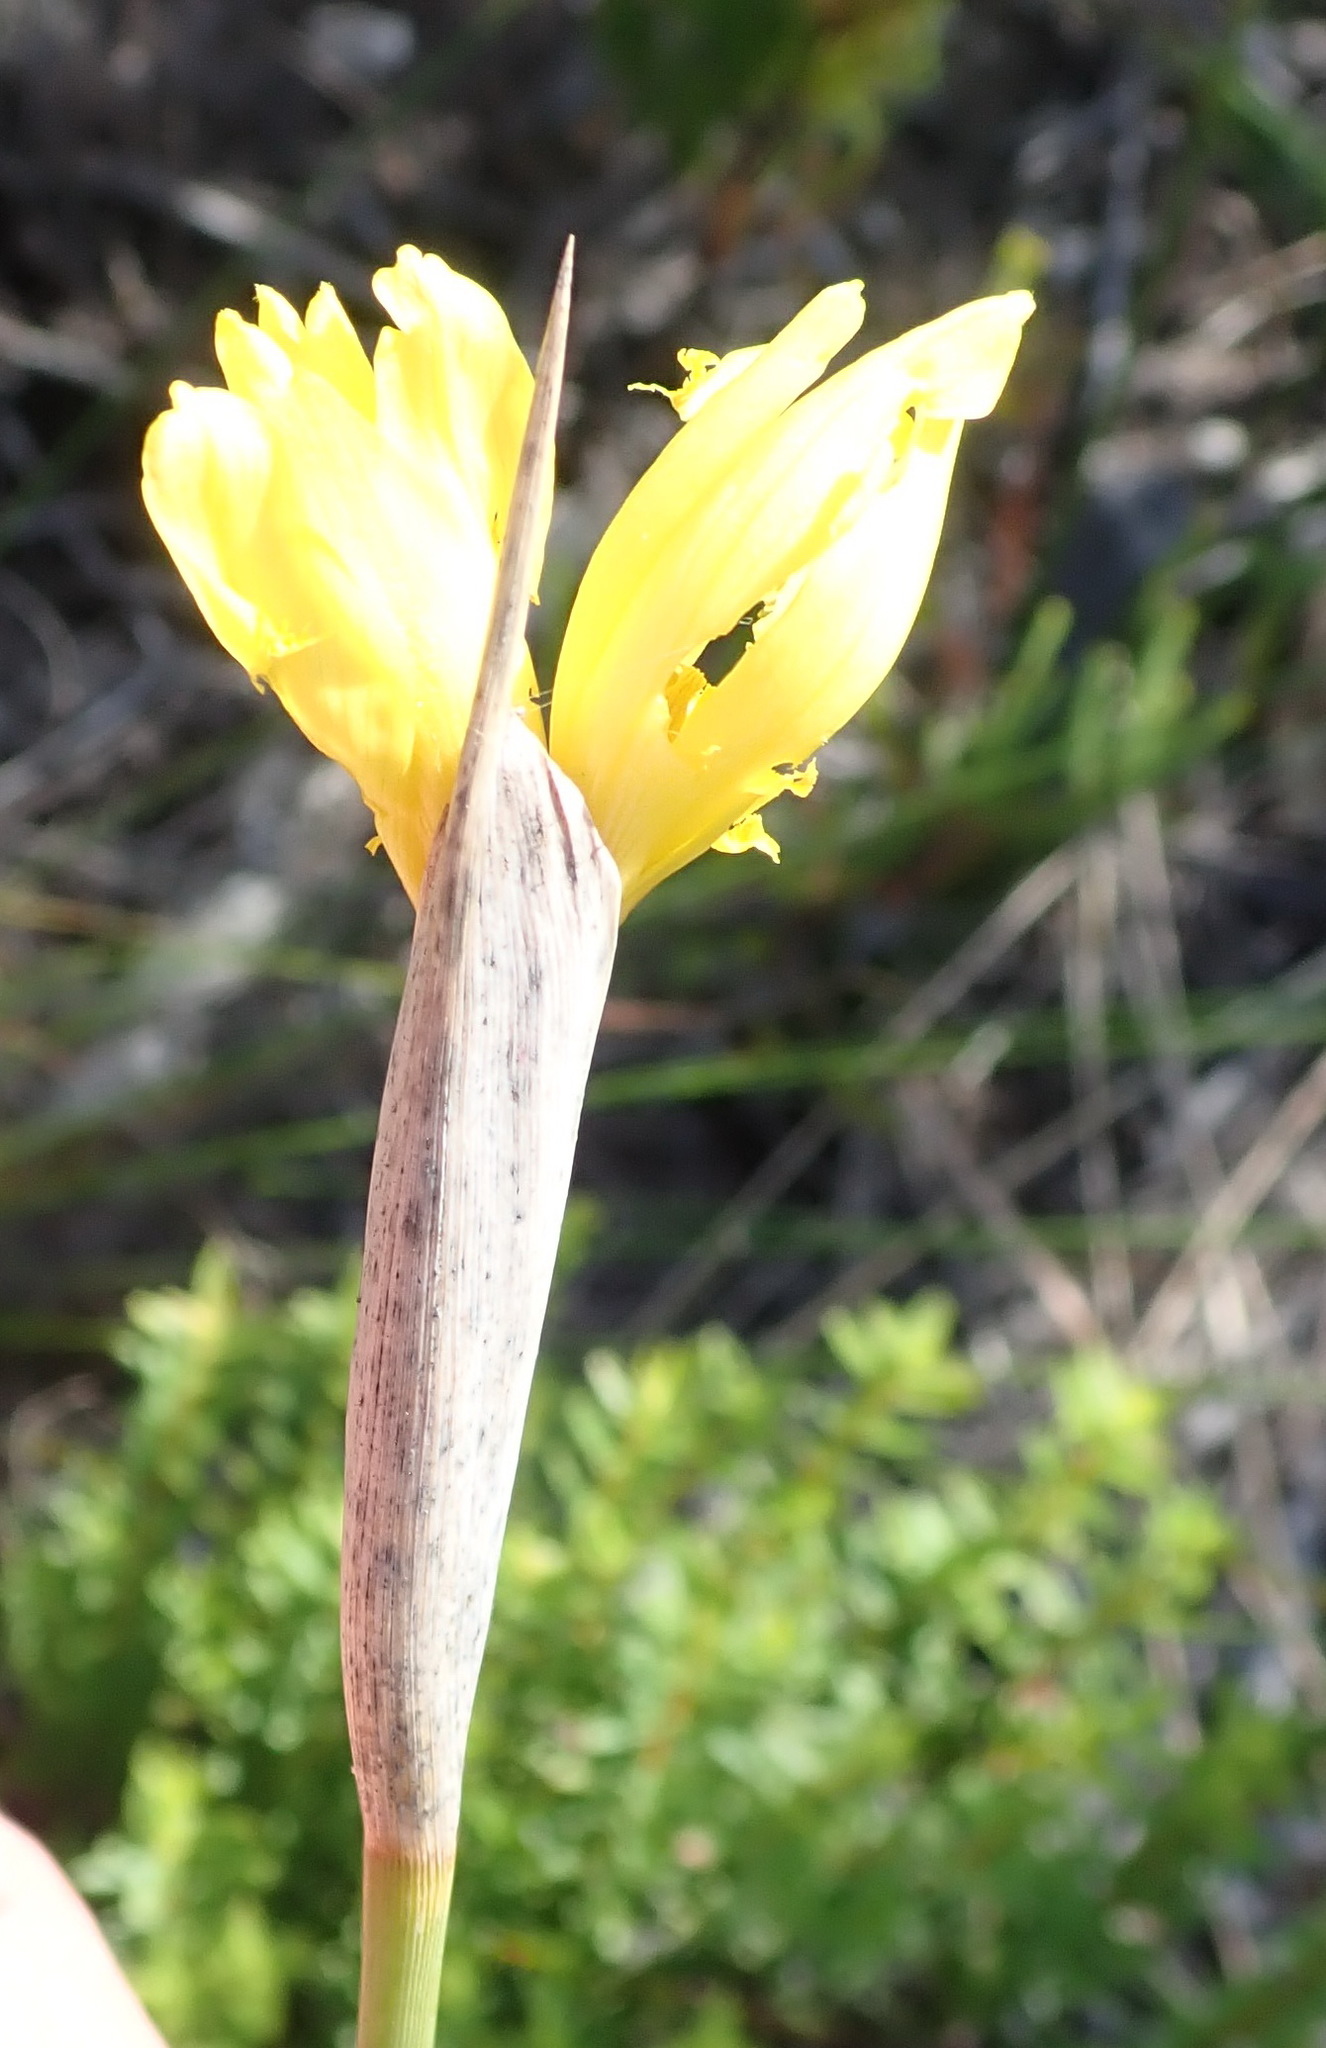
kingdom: Plantae
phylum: Tracheophyta
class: Liliopsida
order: Asparagales
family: Iridaceae
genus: Bobartia
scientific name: Bobartia macrospatha
